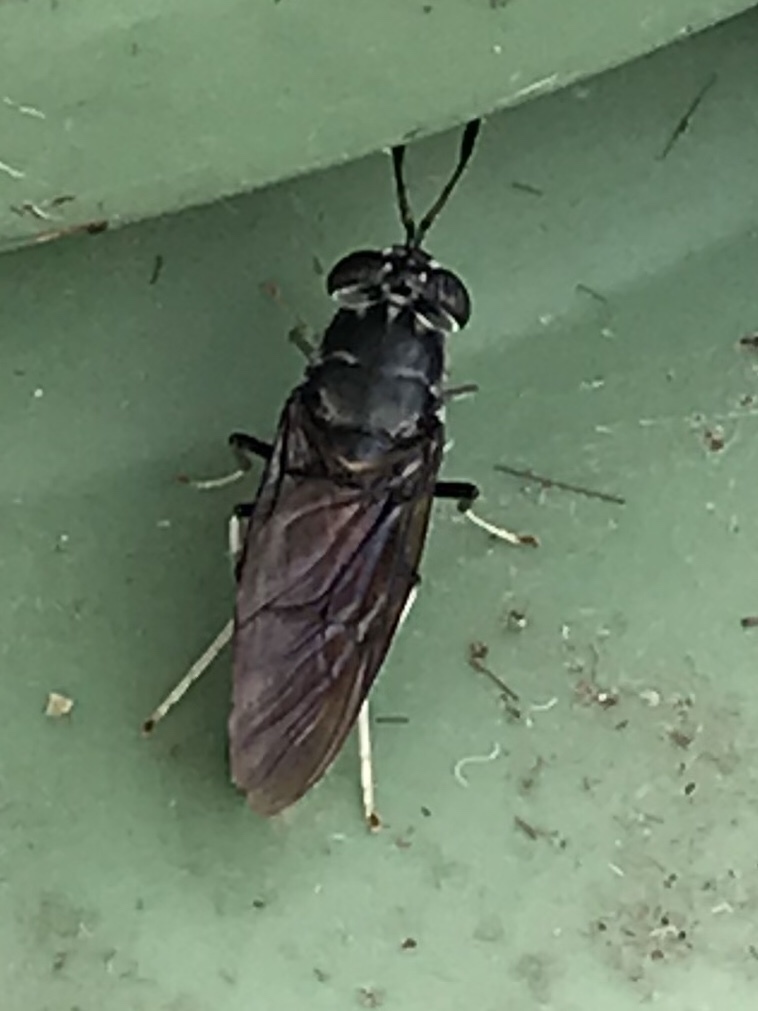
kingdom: Animalia
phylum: Arthropoda
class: Insecta
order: Diptera
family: Stratiomyidae
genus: Hermetia
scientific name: Hermetia illucens
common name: Black soldier fly
